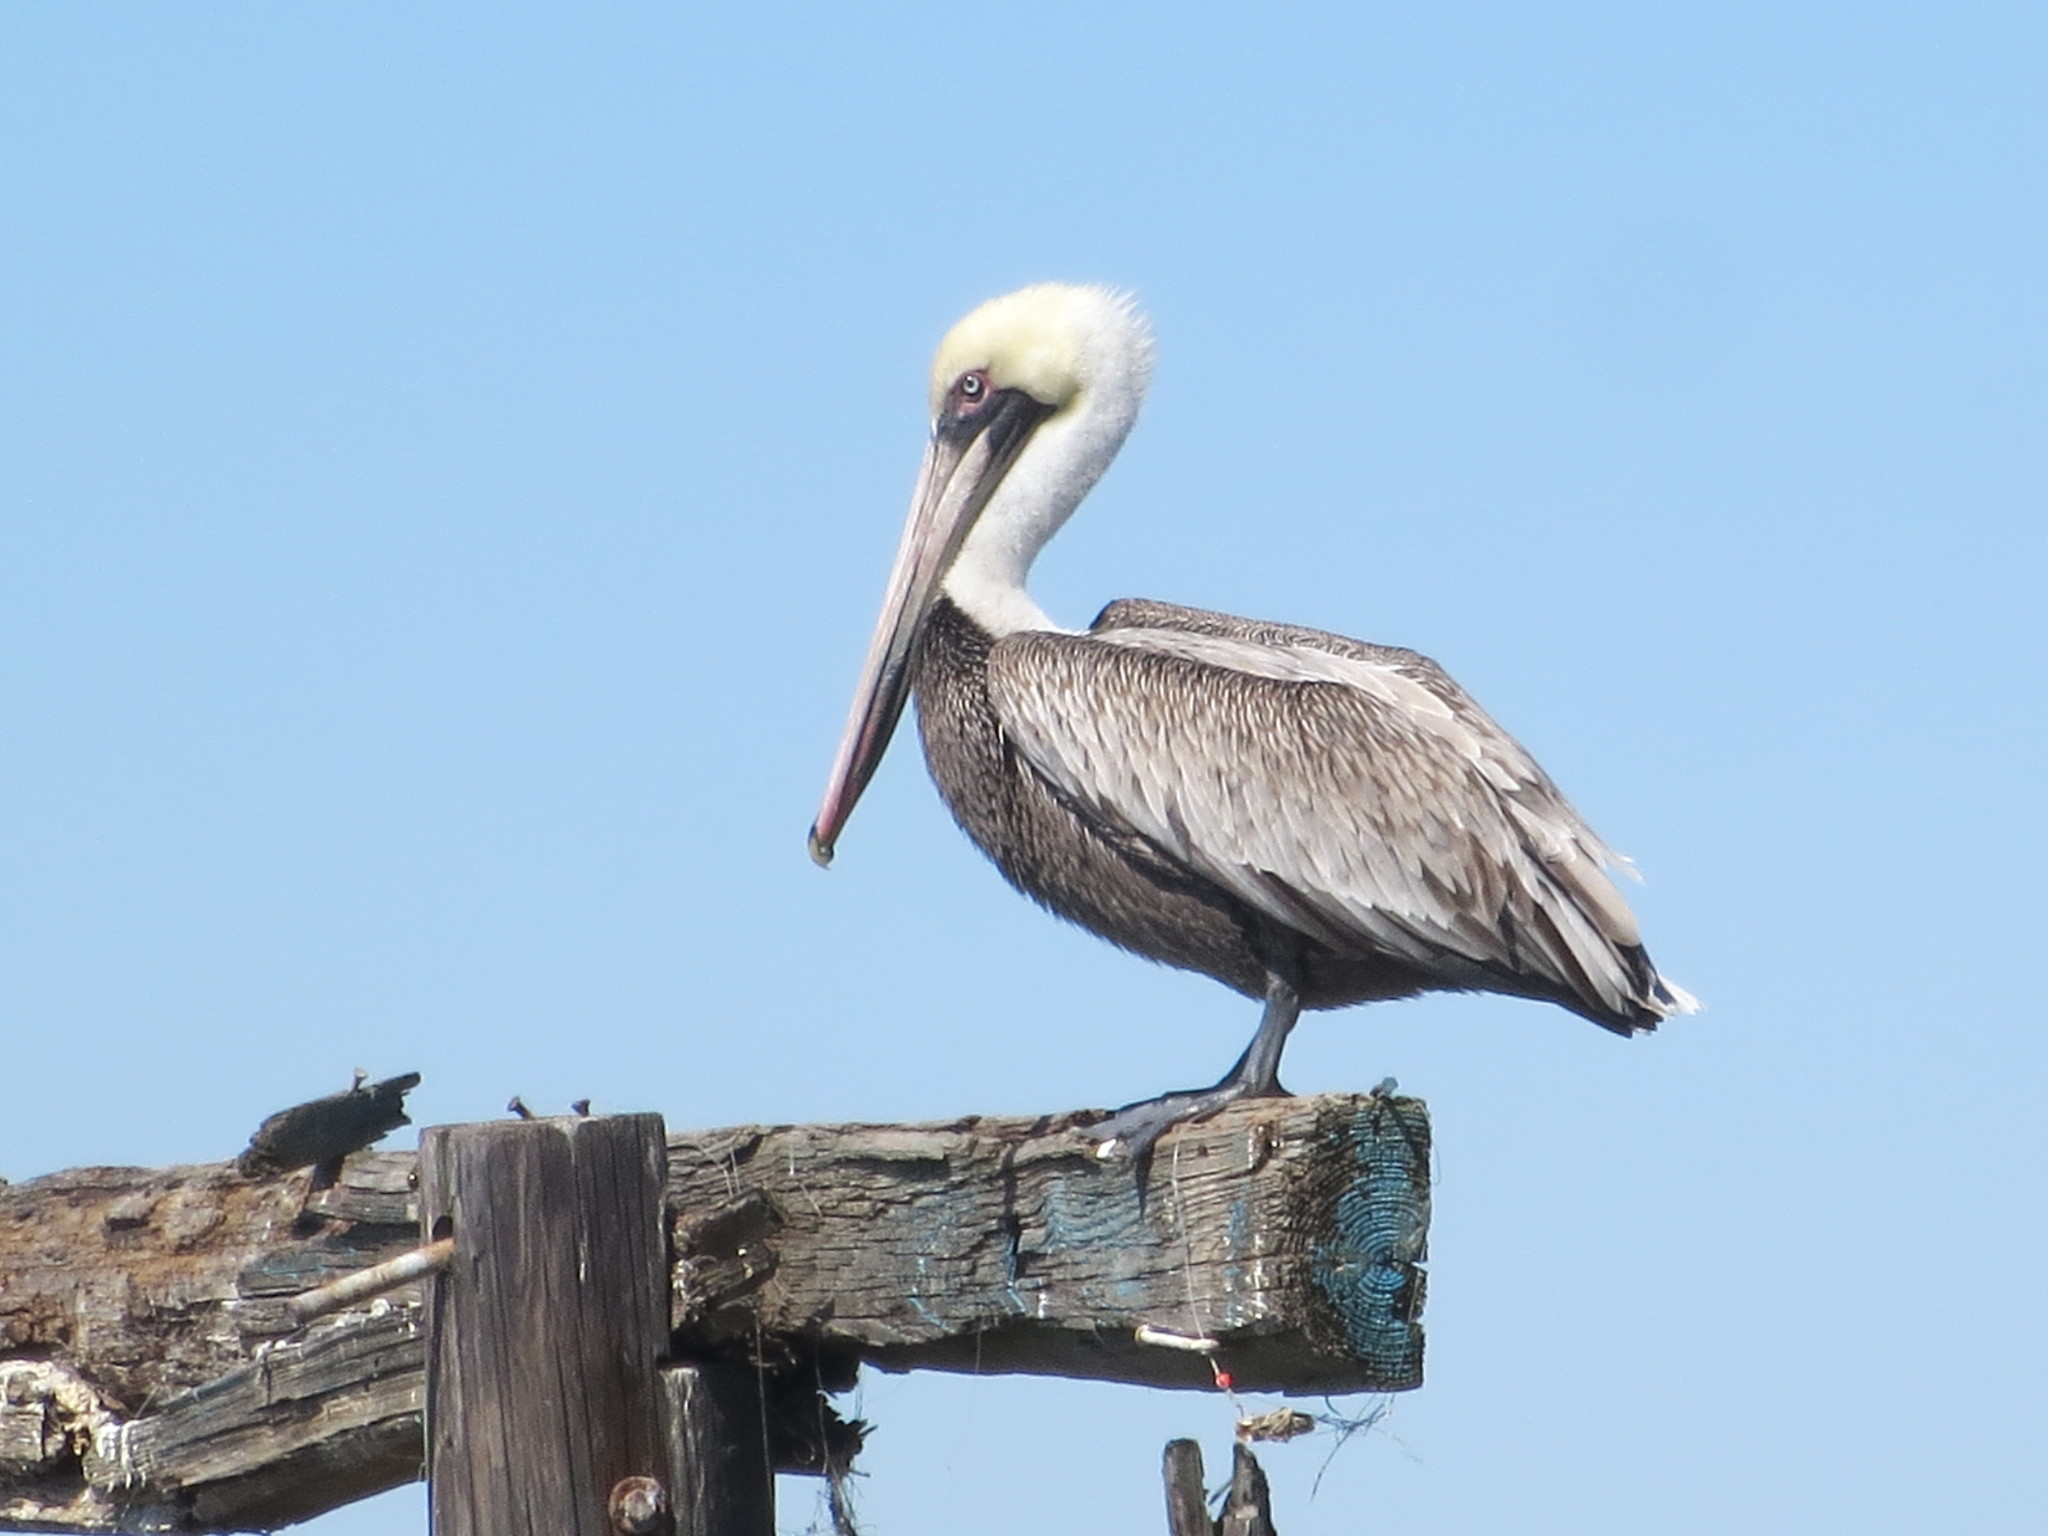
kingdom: Animalia
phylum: Chordata
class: Aves
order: Pelecaniformes
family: Pelecanidae
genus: Pelecanus
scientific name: Pelecanus occidentalis
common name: Brown pelican
